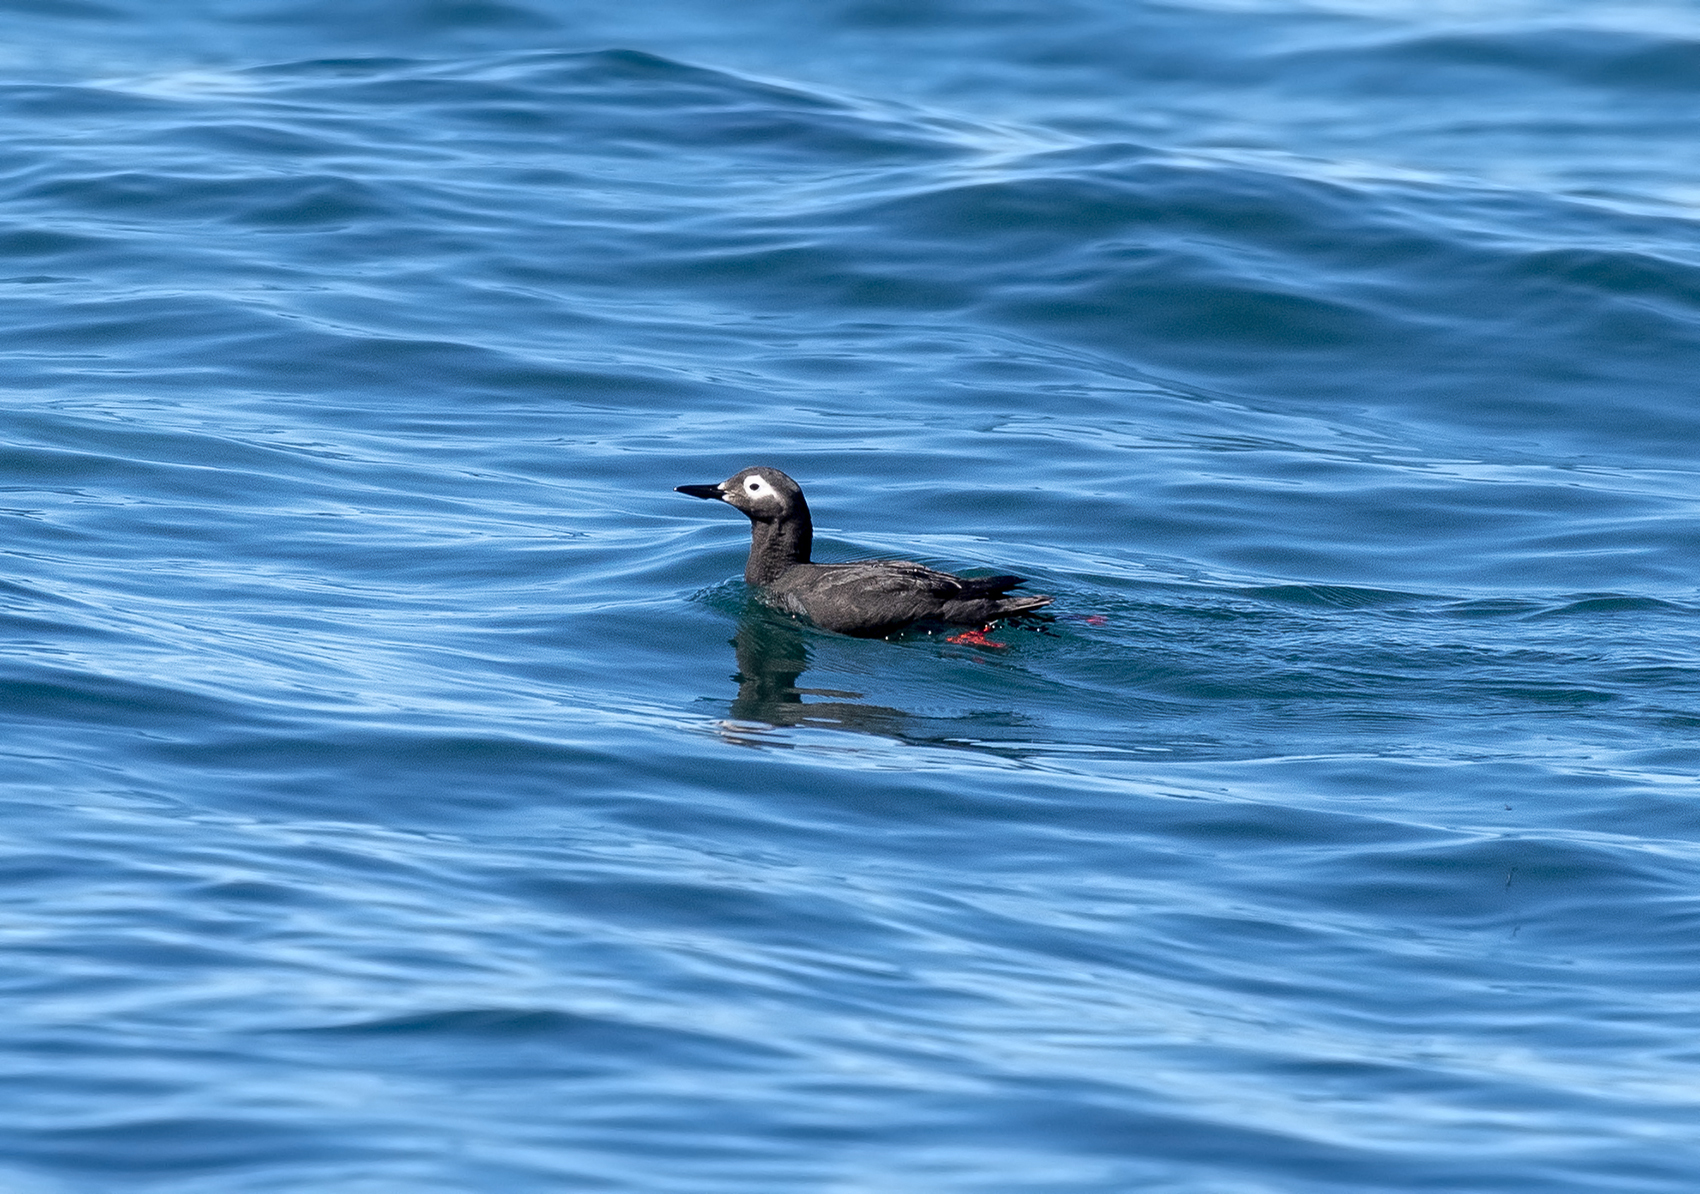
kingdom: Animalia
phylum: Chordata
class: Aves
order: Charadriiformes
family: Alcidae
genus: Cepphus
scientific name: Cepphus carbo
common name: Spectacled guillemot
